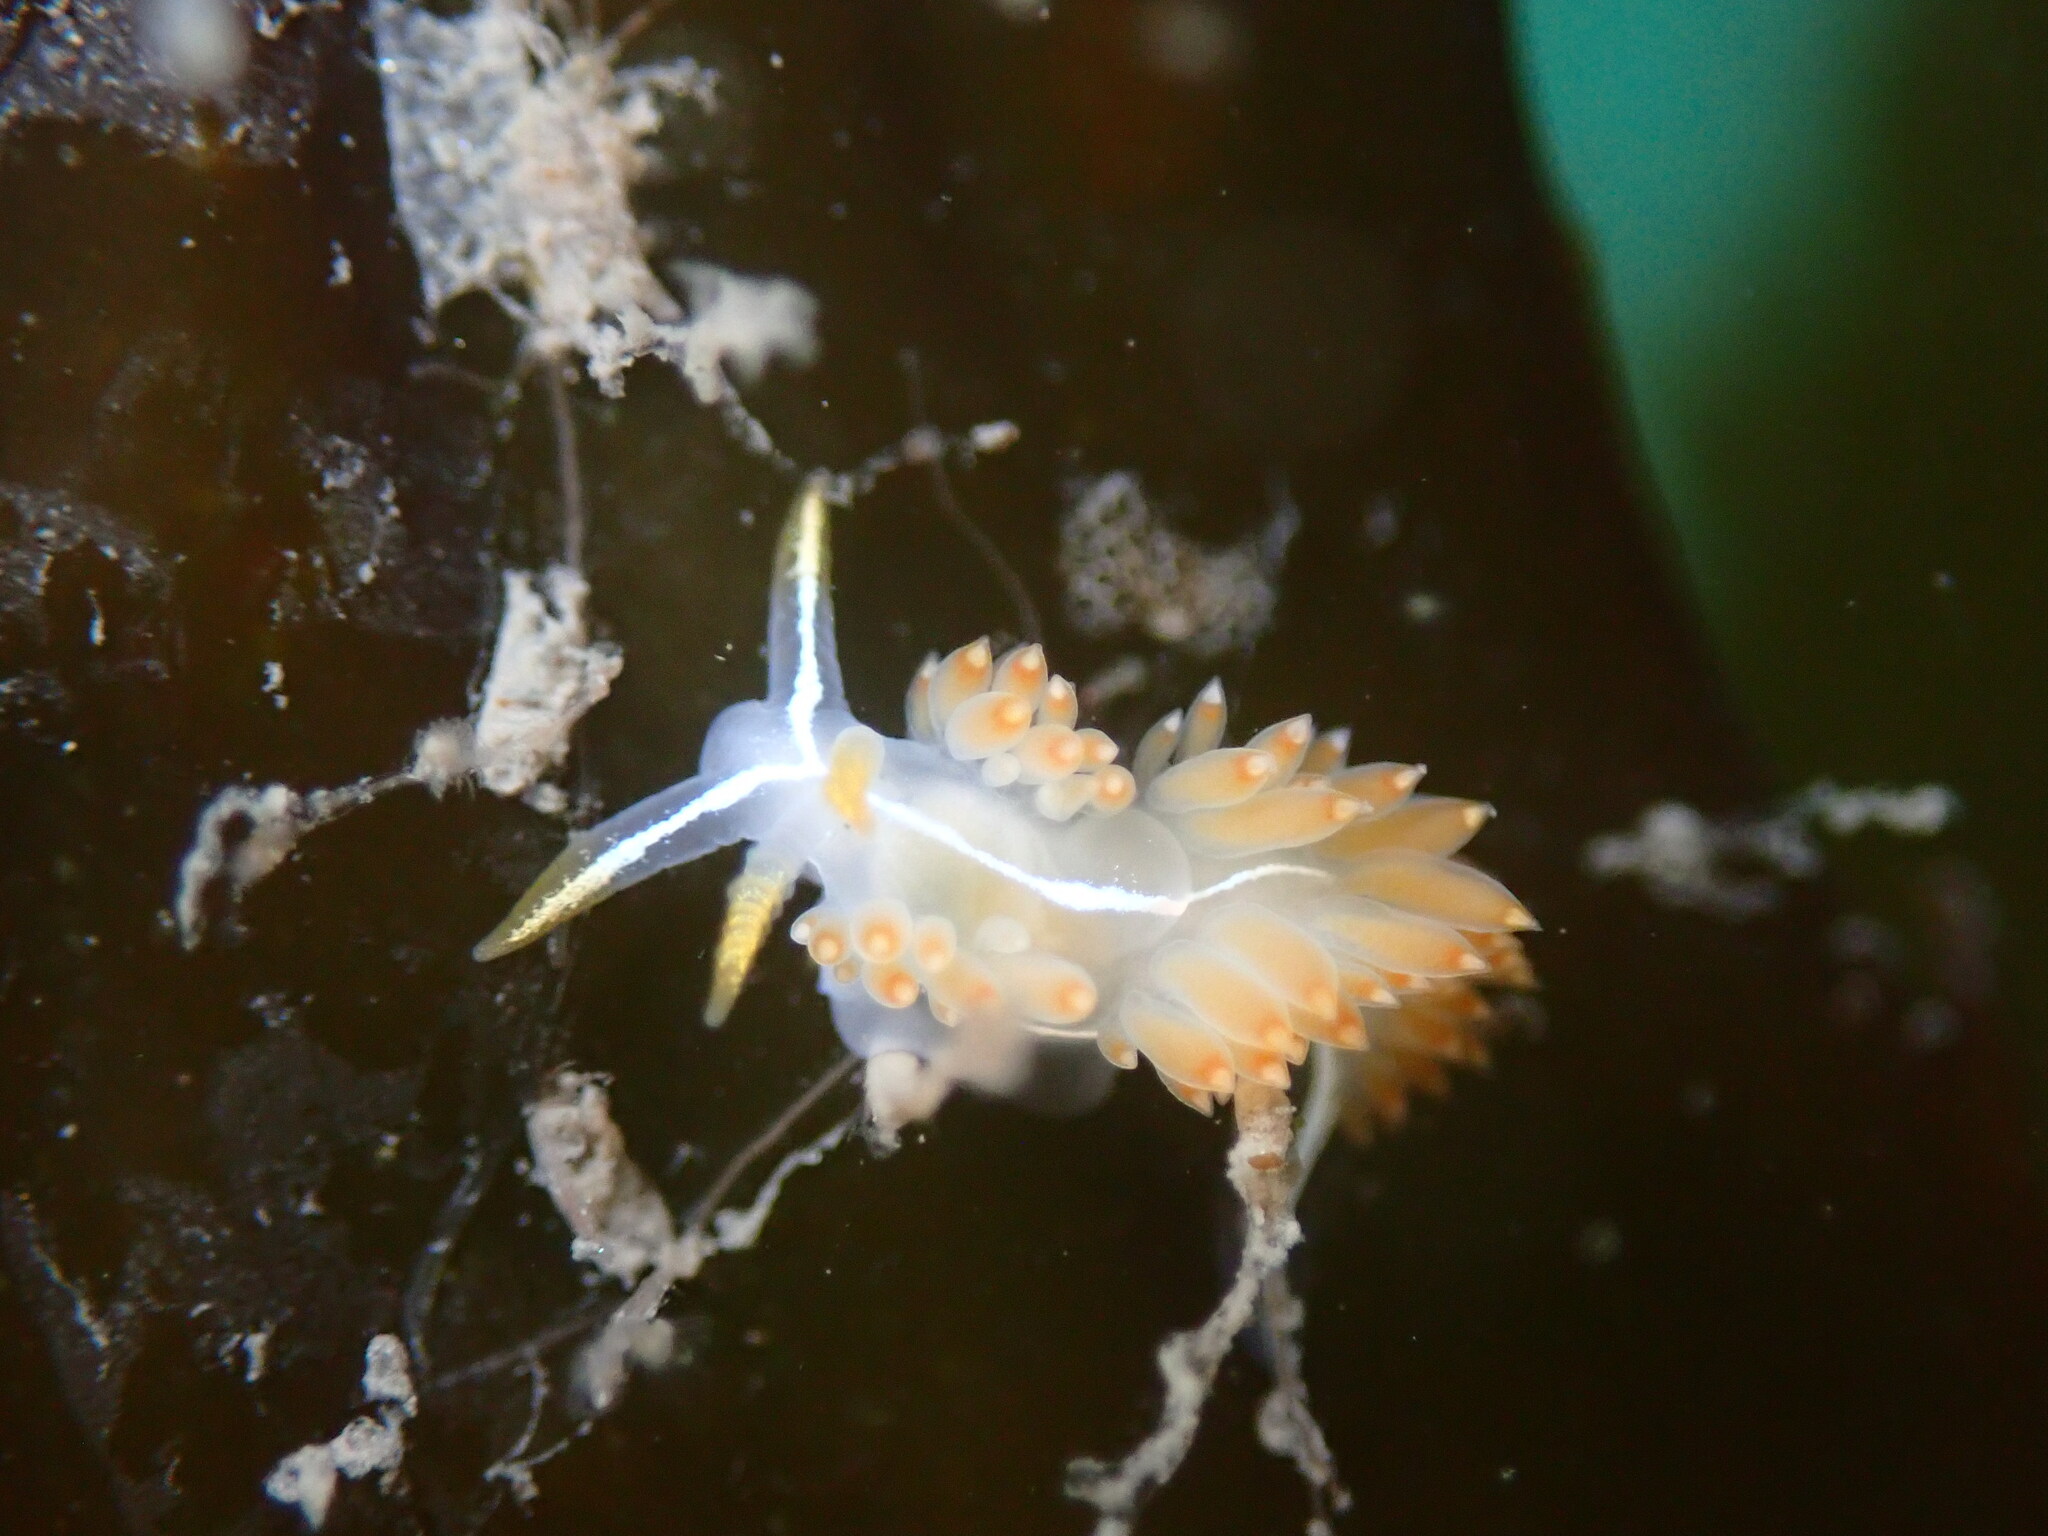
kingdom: Animalia
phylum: Mollusca
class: Gastropoda
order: Nudibranchia
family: Coryphellidae
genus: Coryphella
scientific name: Coryphella trilineata
